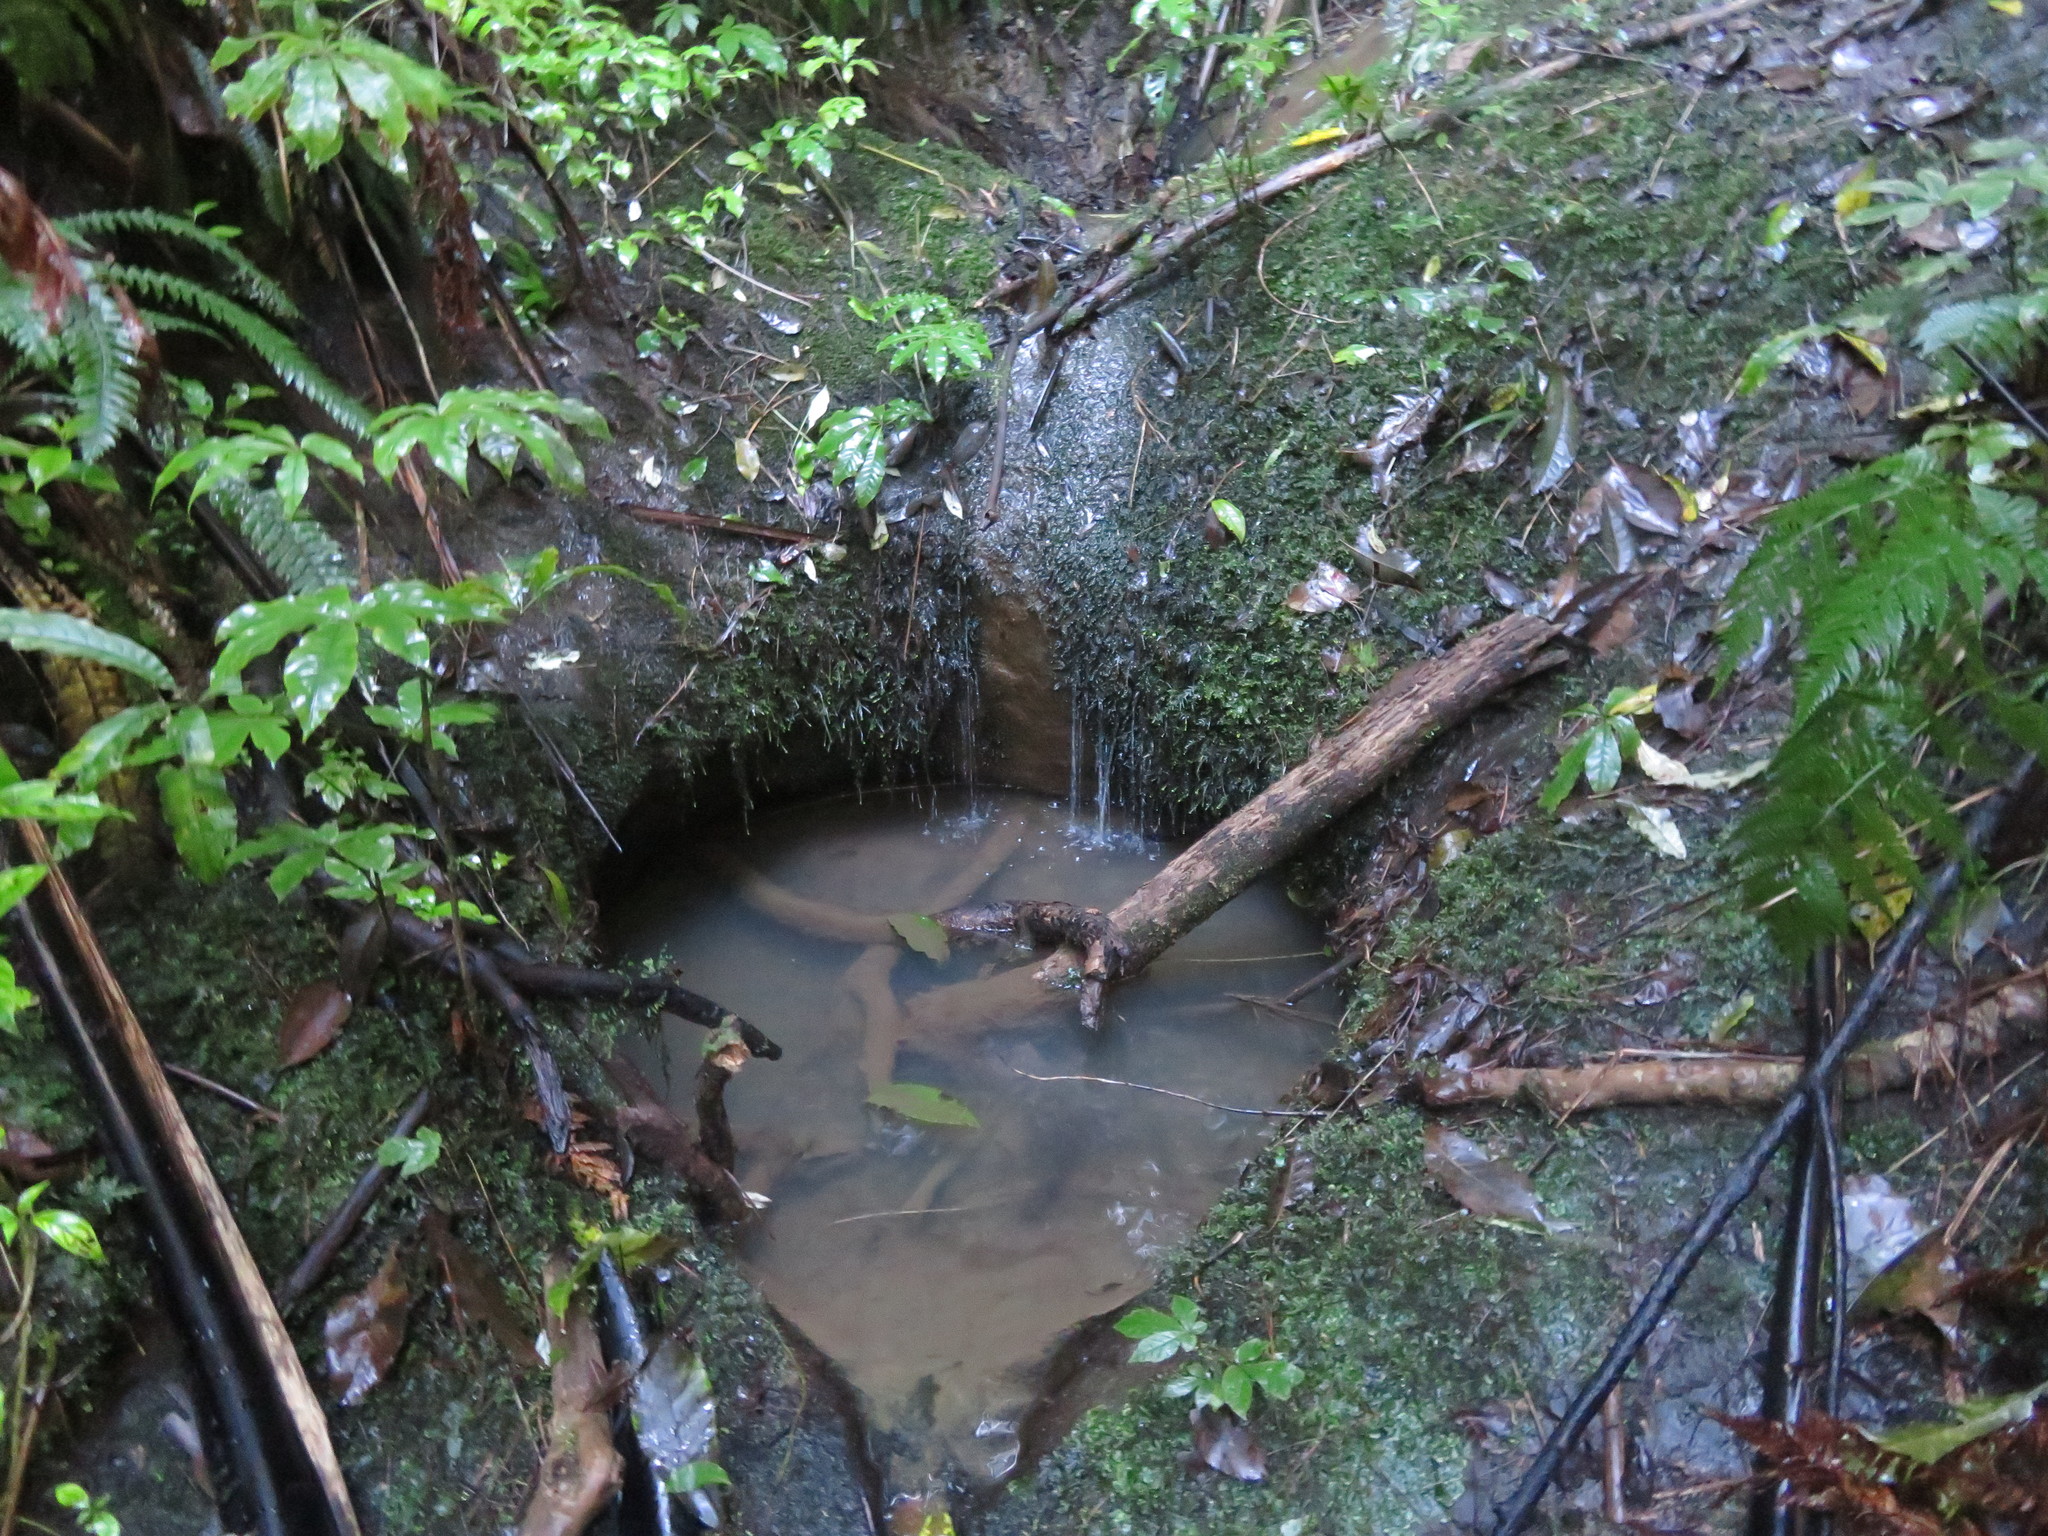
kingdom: Plantae
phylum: Tracheophyta
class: Magnoliopsida
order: Apiales
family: Araliaceae
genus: Schefflera
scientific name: Schefflera digitata
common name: Pate
